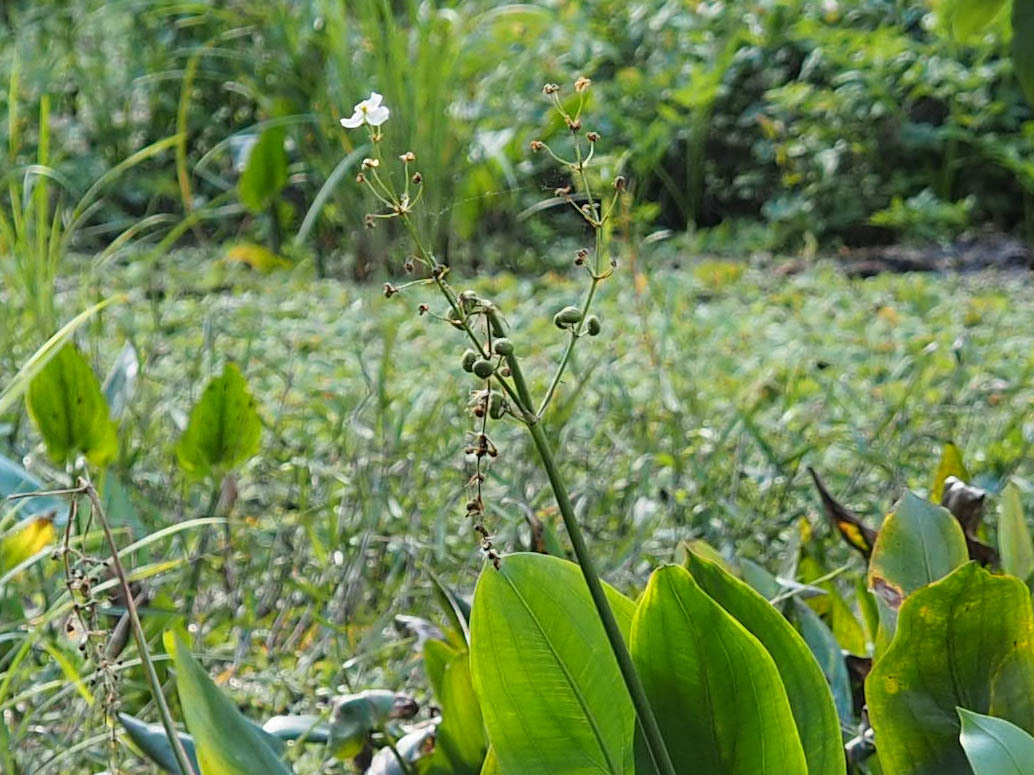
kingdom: Plantae
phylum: Tracheophyta
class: Liliopsida
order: Alismatales
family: Alismataceae
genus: Sagittaria
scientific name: Sagittaria lancifolia
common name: Lance-leaf arrowhead
